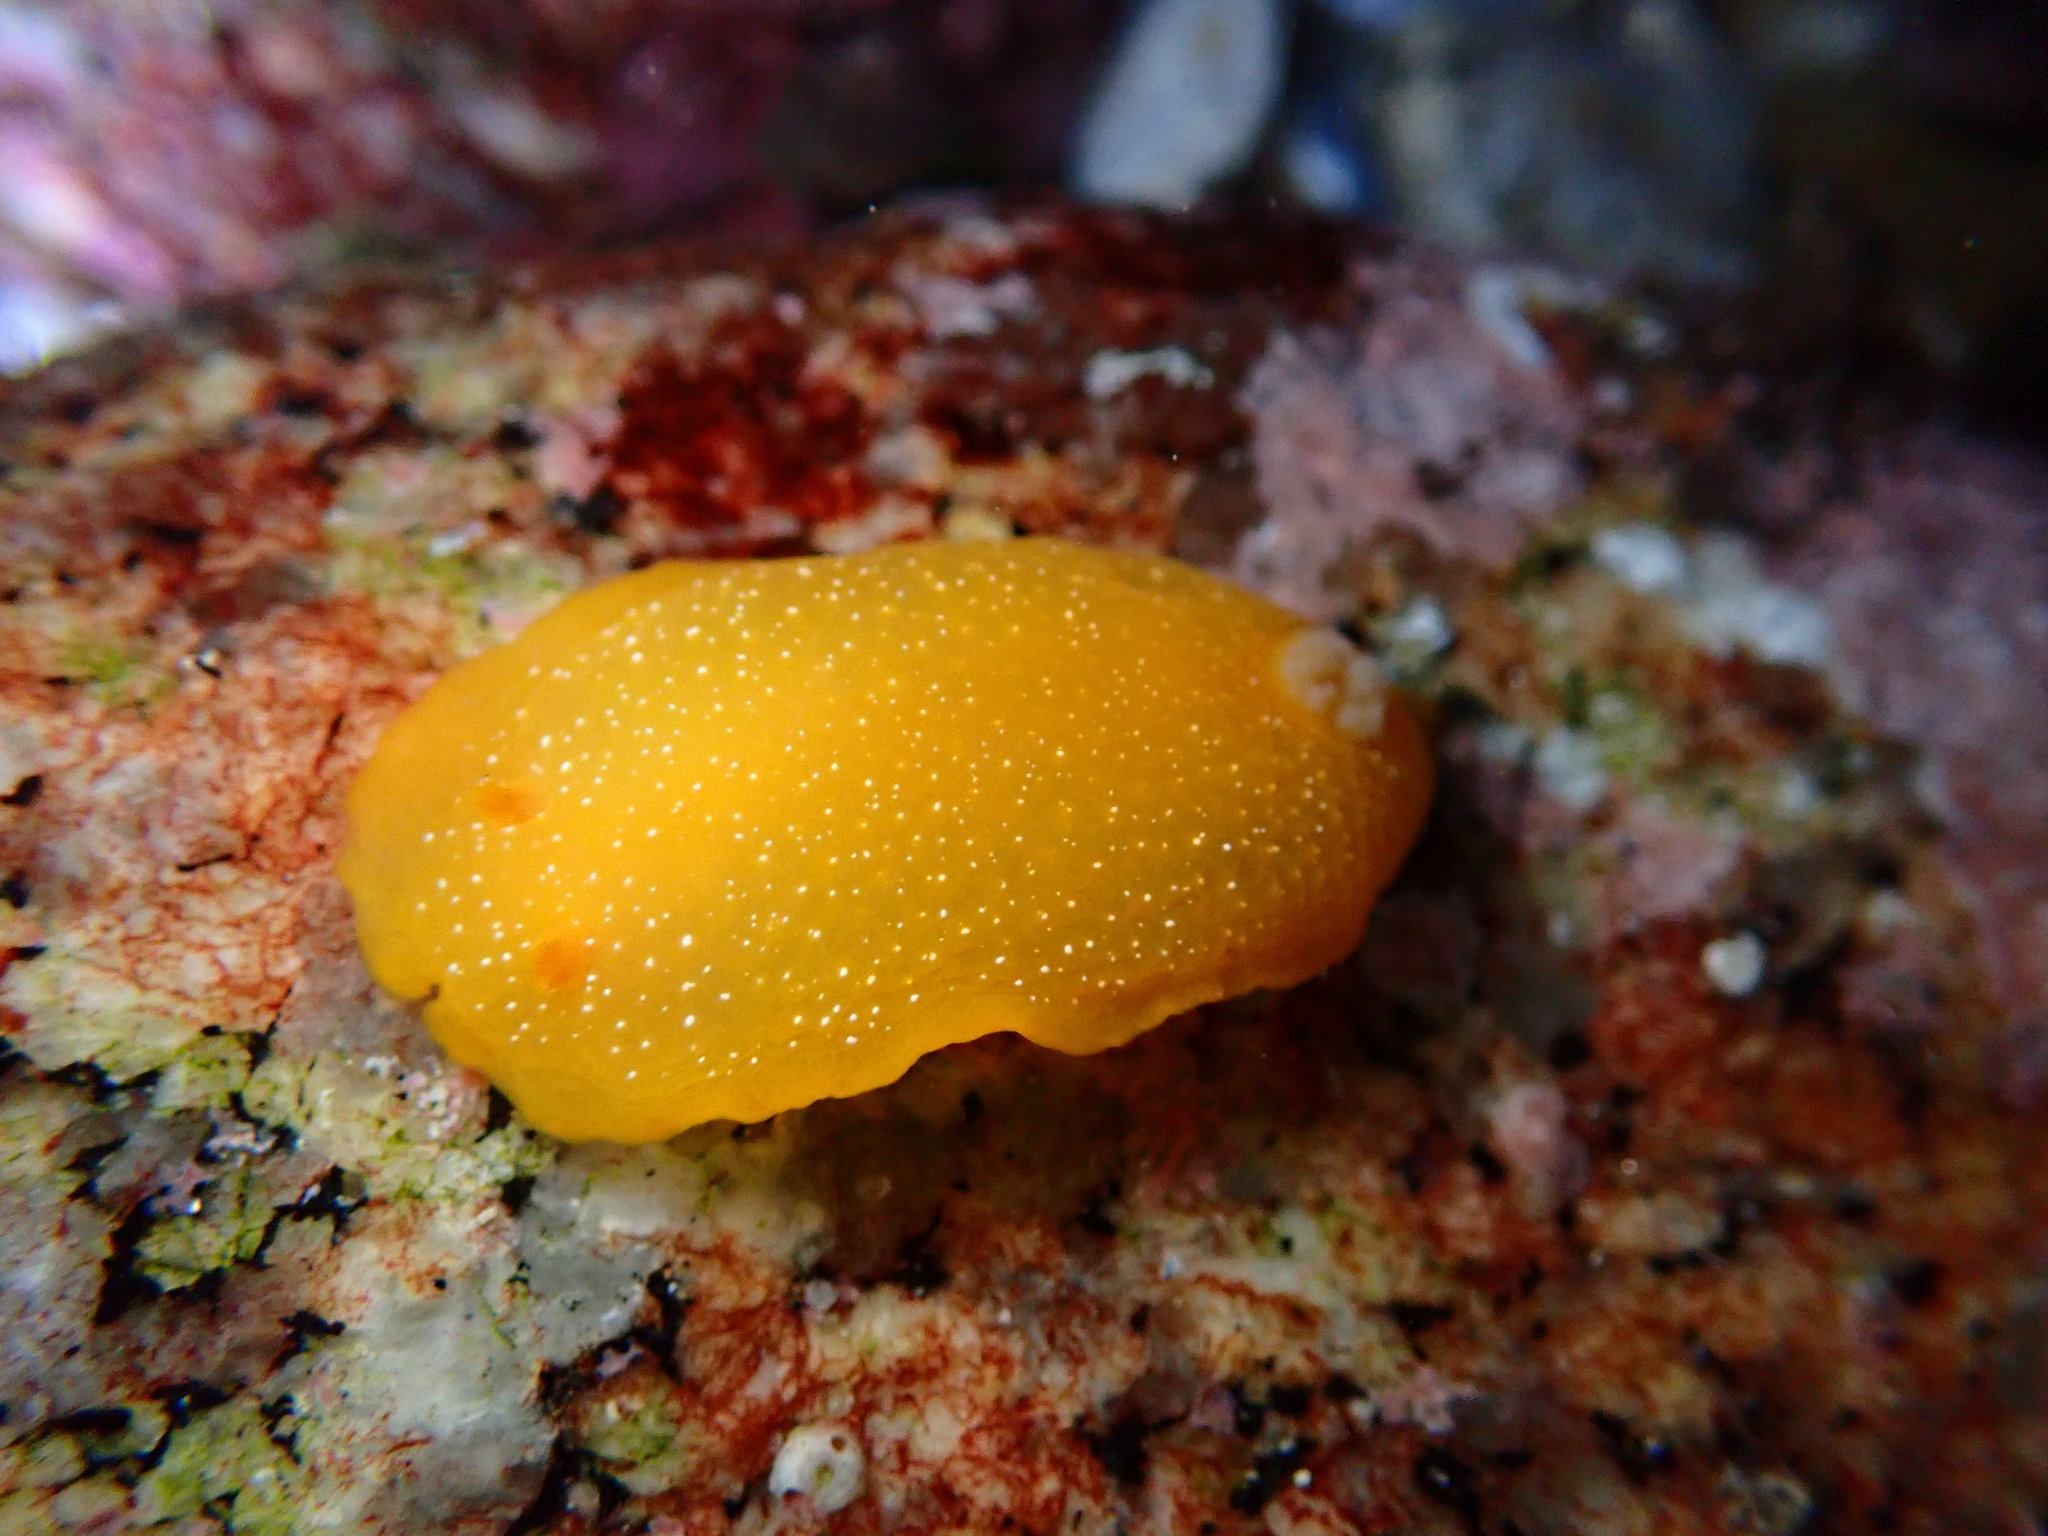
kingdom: Animalia
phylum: Mollusca
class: Gastropoda
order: Nudibranchia
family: Dendrodorididae
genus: Doriopsilla
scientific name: Doriopsilla fulva
